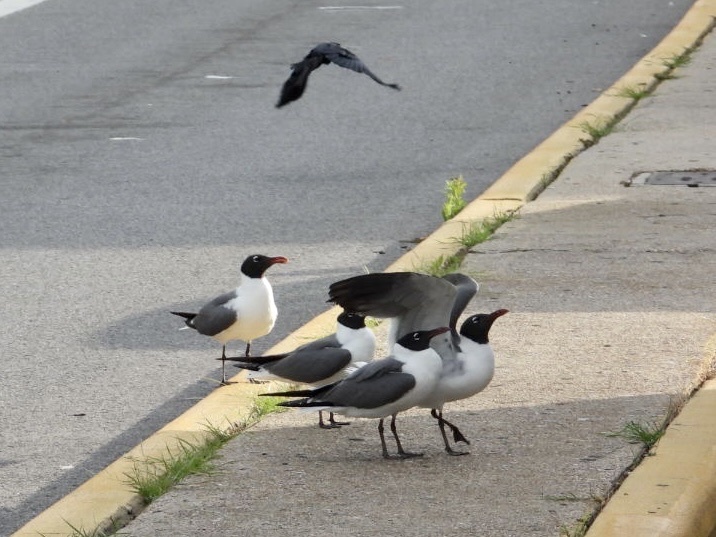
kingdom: Animalia
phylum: Chordata
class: Aves
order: Charadriiformes
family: Laridae
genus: Leucophaeus
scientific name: Leucophaeus atricilla
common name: Laughing gull
